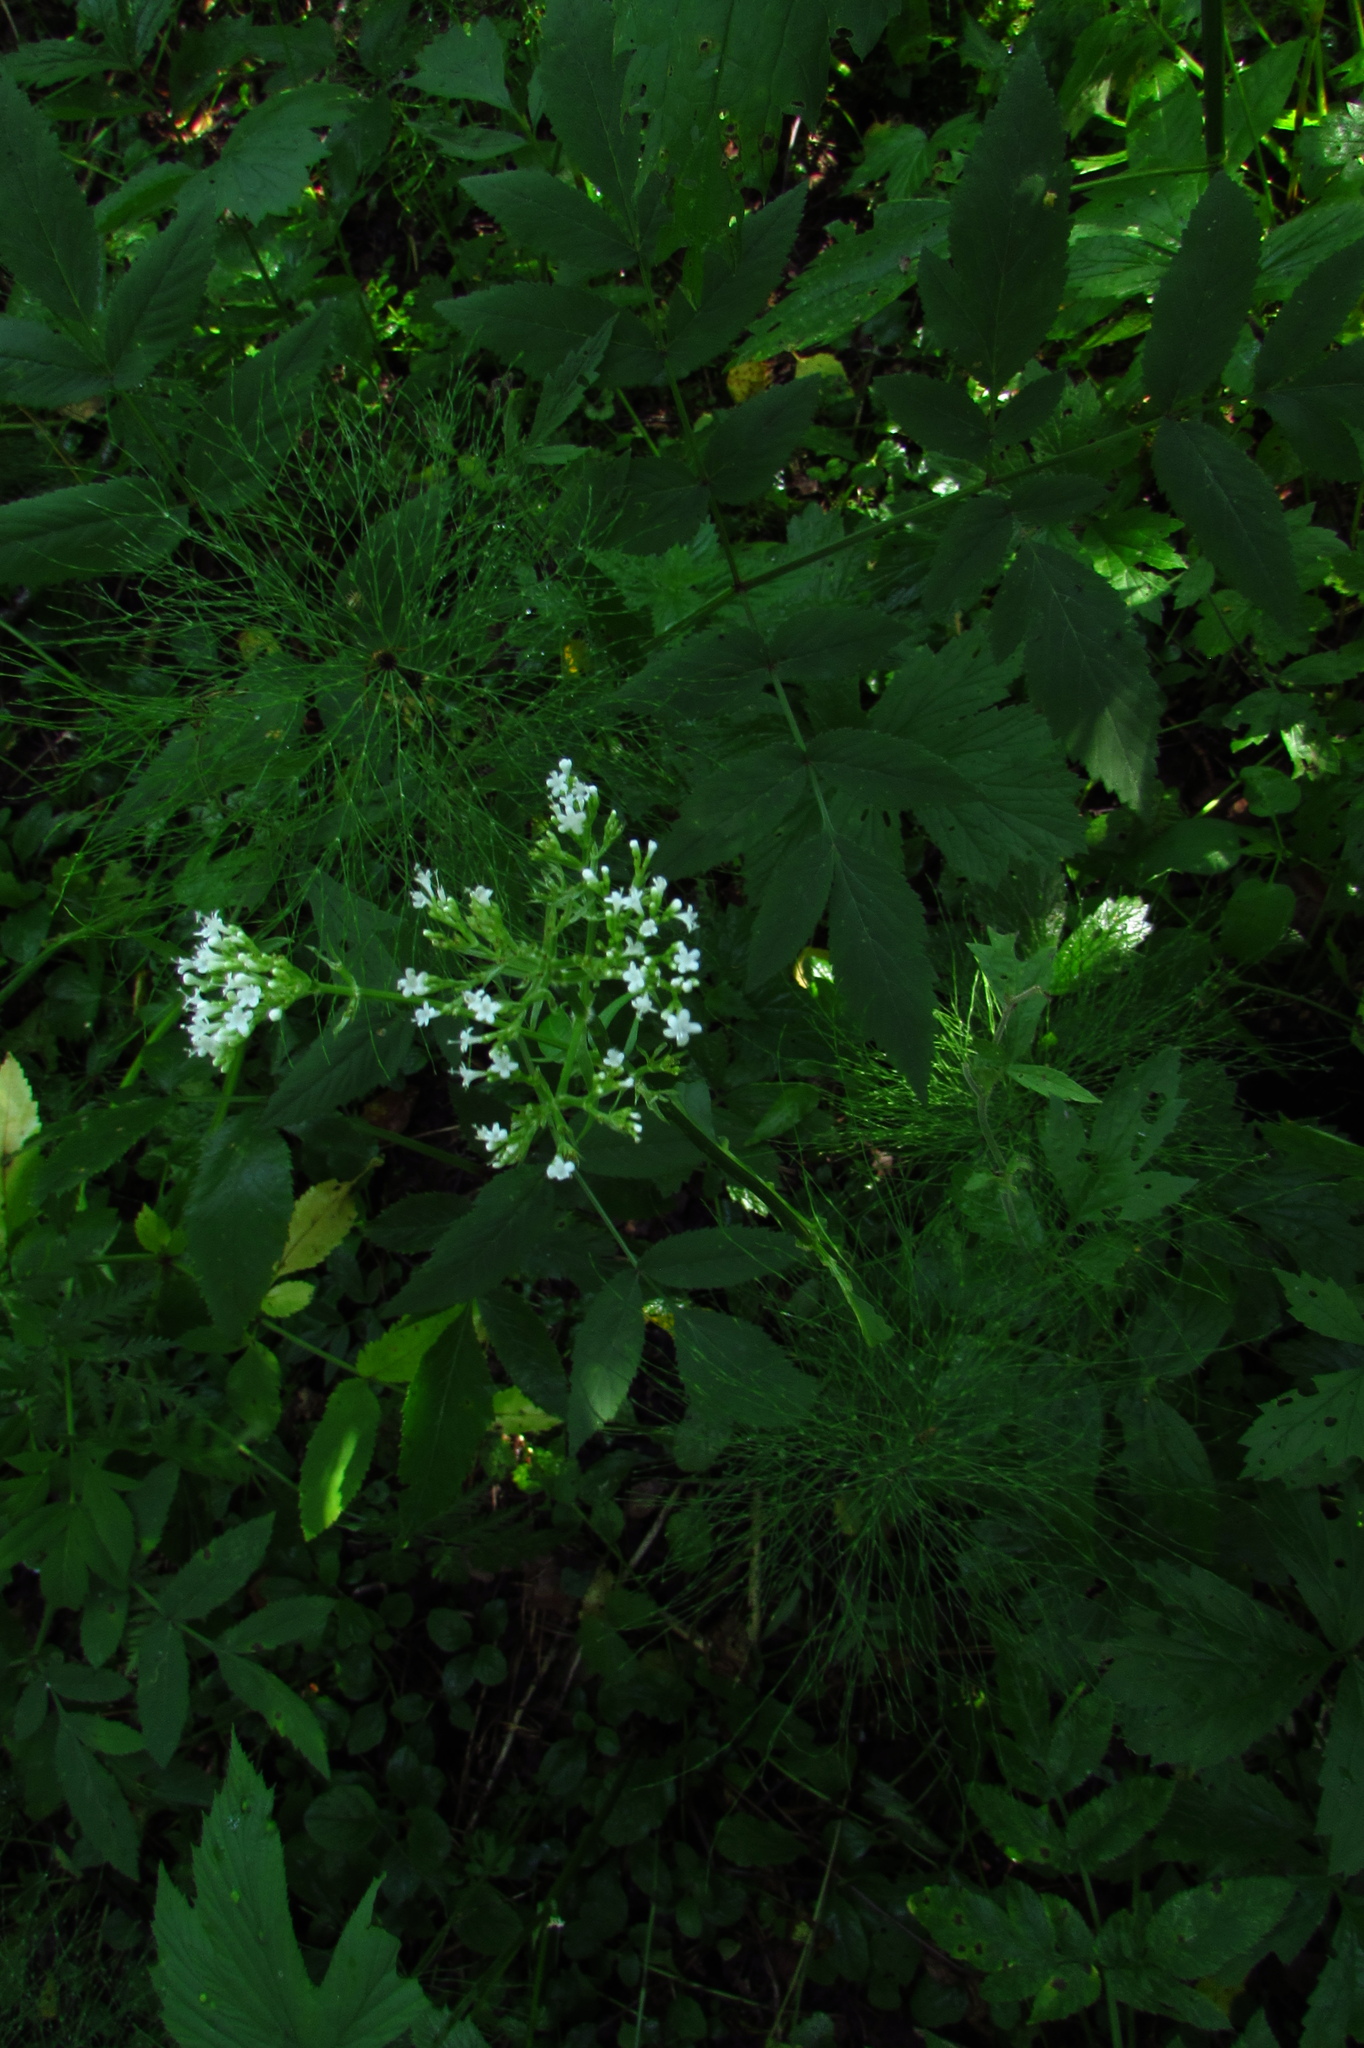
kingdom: Plantae
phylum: Tracheophyta
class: Magnoliopsida
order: Dipsacales
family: Caprifoliaceae
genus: Valeriana
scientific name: Valeriana officinalis
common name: Common valerian
